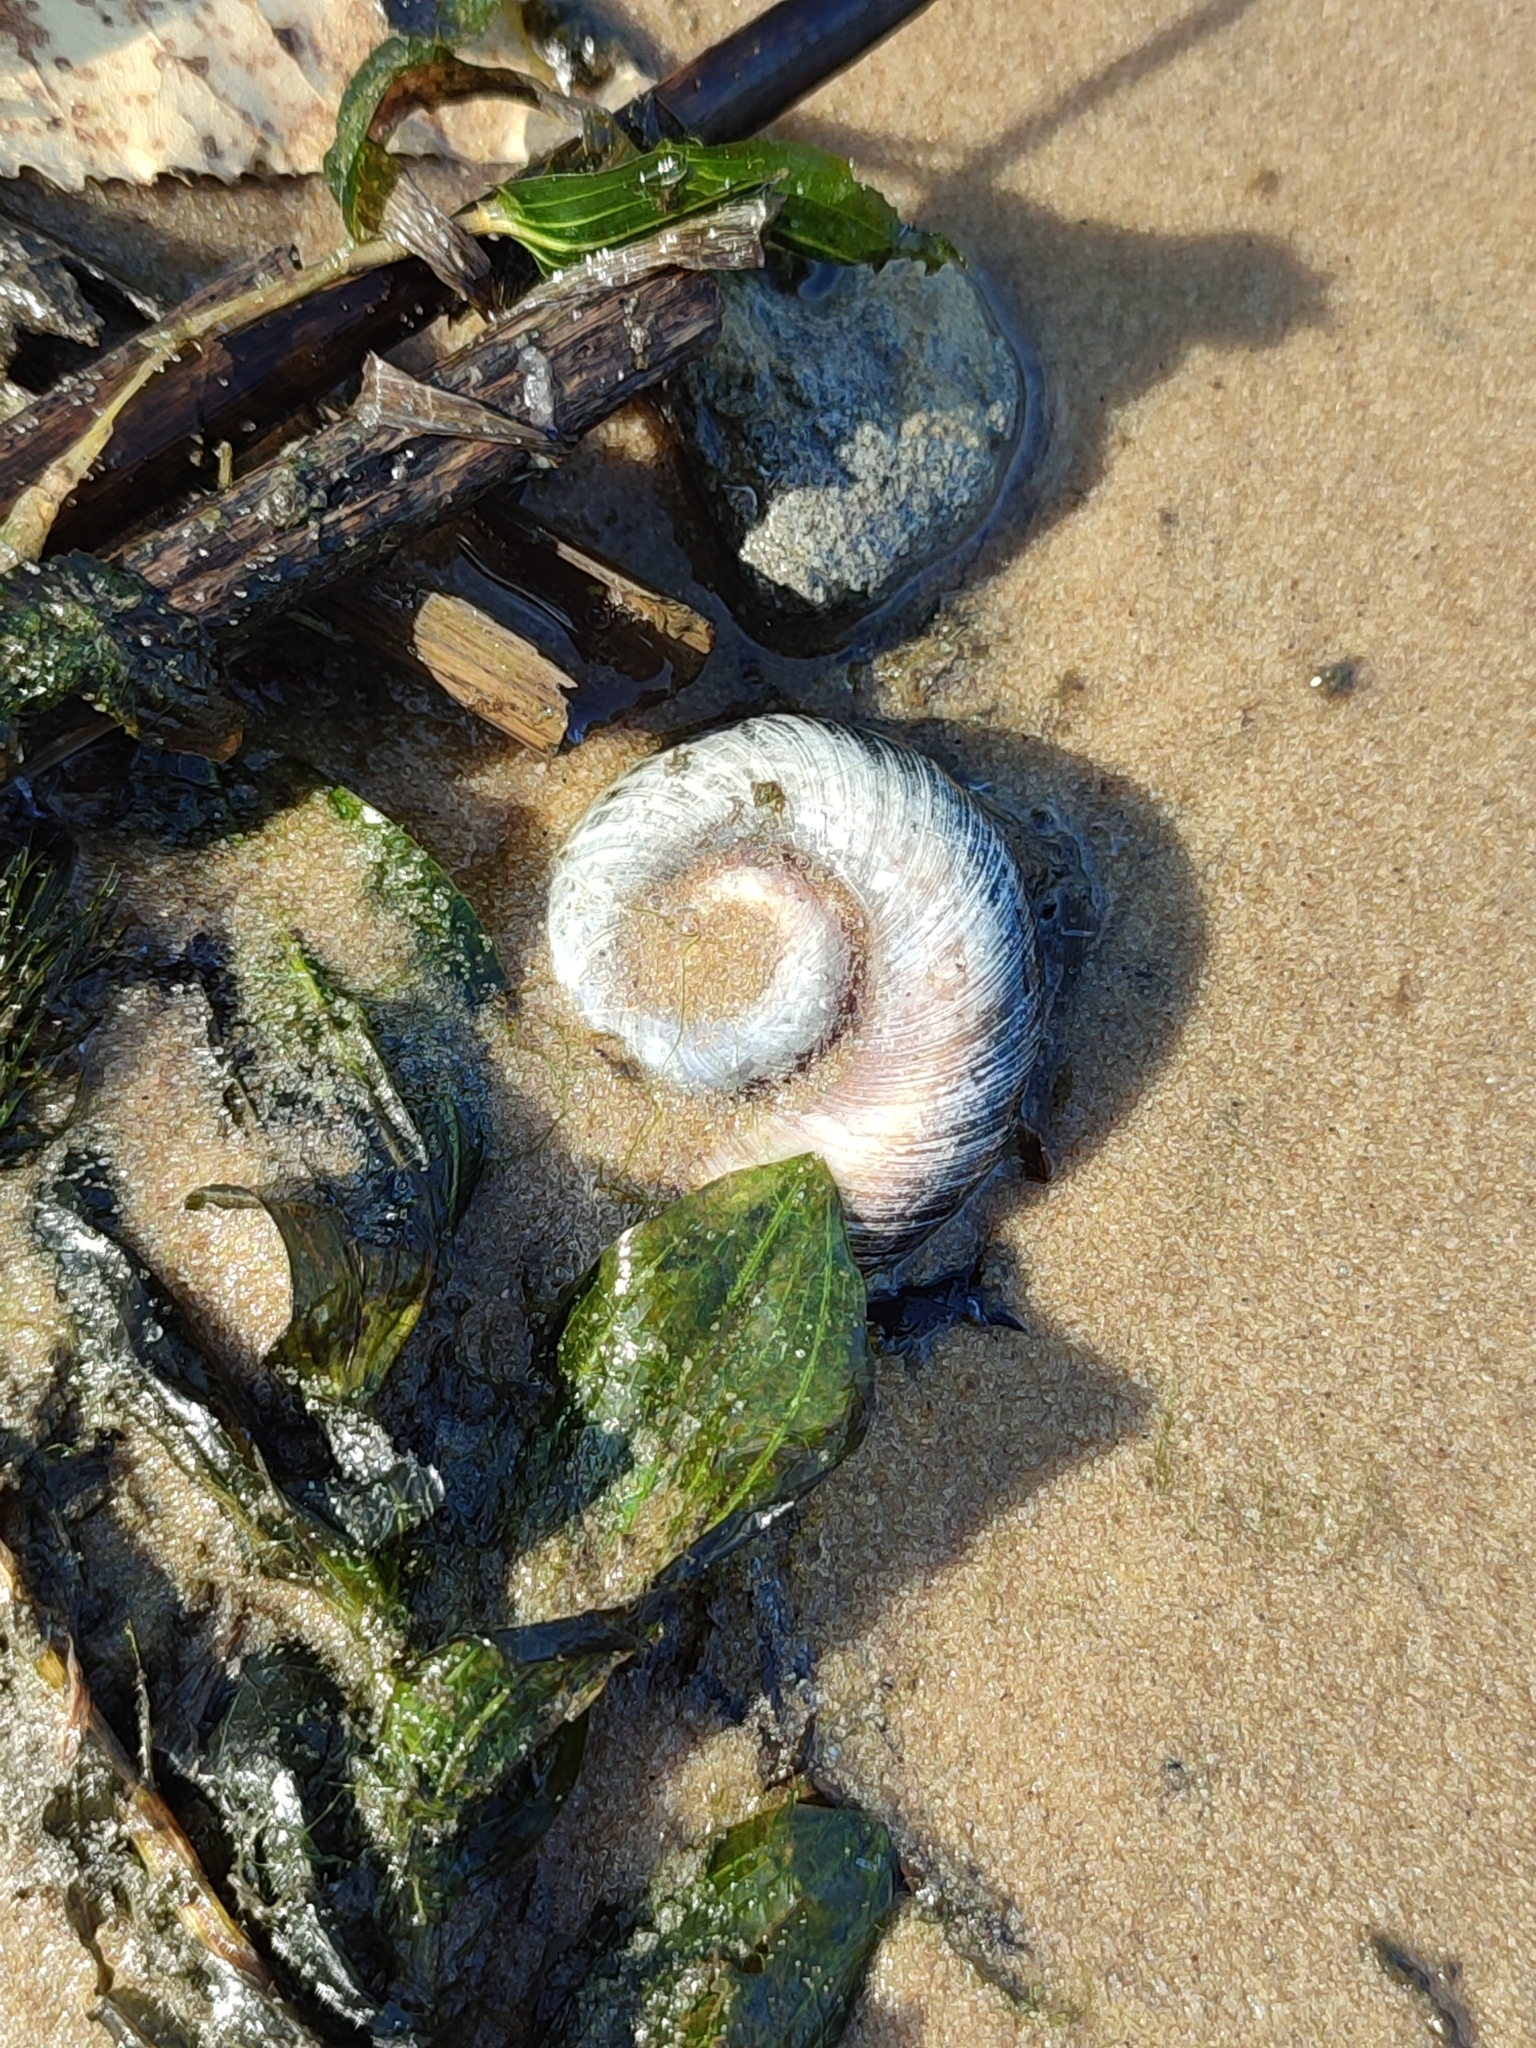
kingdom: Animalia
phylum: Mollusca
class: Gastropoda
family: Planorbidae
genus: Planorbarius
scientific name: Planorbarius corneus
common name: Great ramshorn
